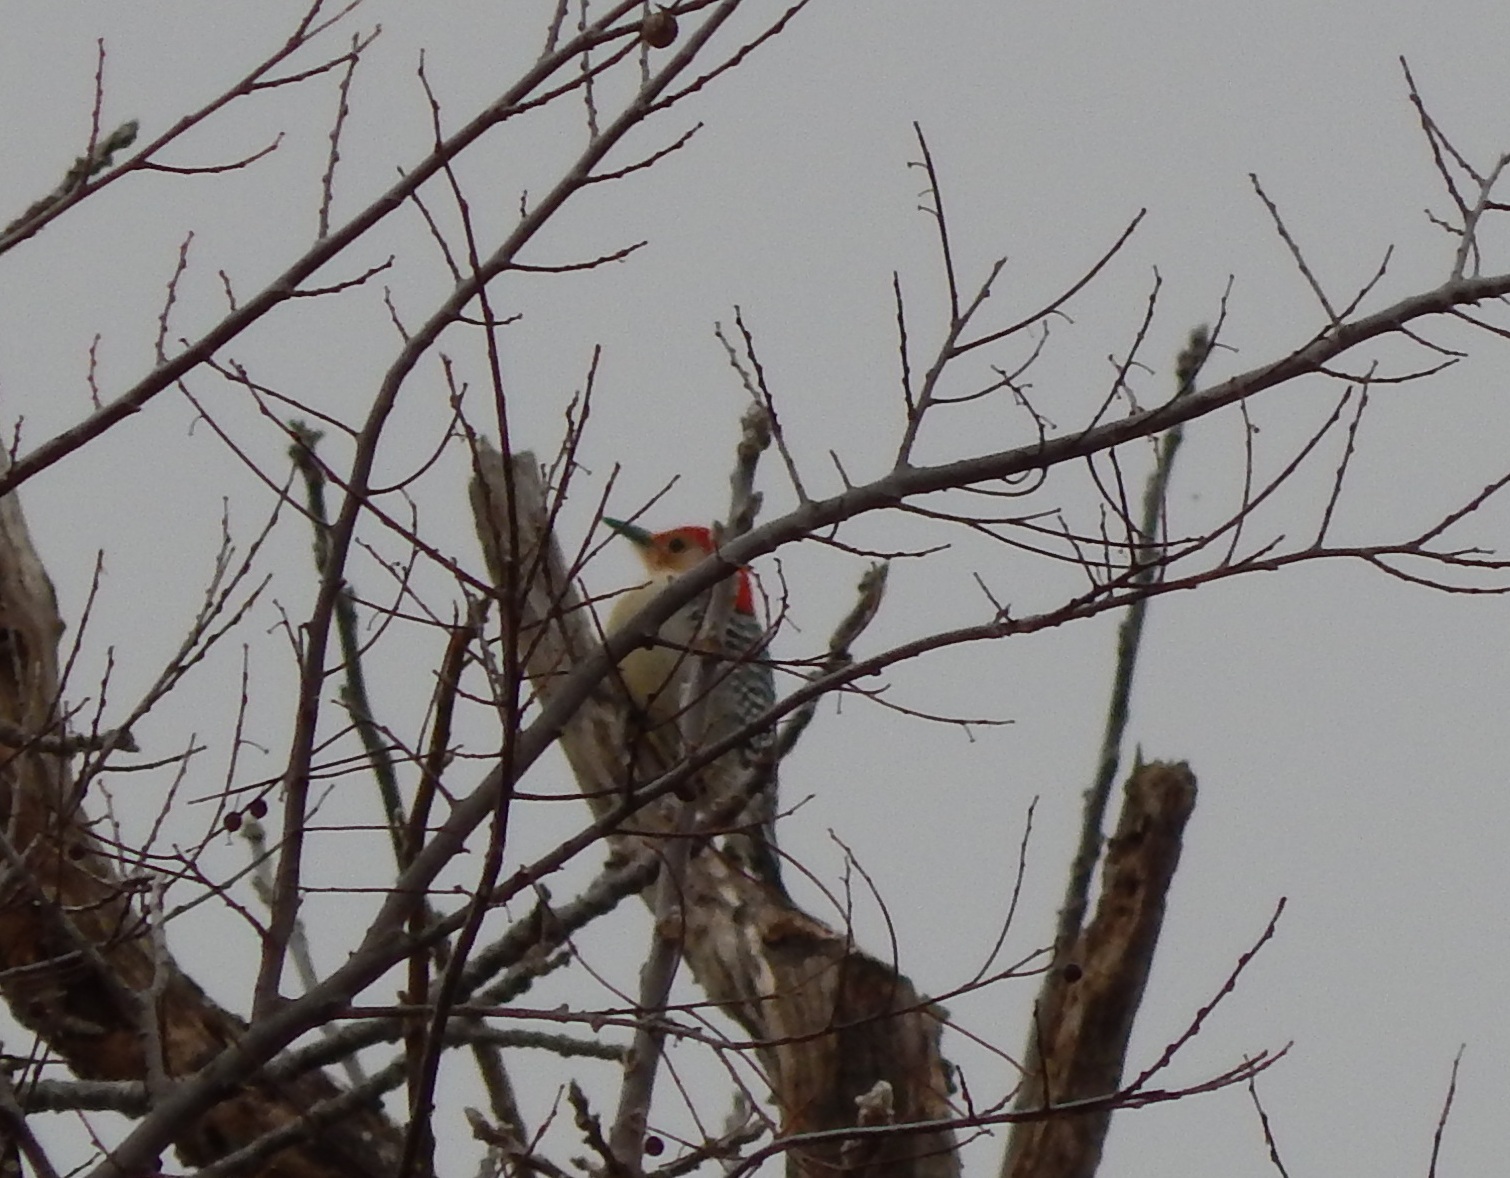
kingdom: Animalia
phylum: Chordata
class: Aves
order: Piciformes
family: Picidae
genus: Melanerpes
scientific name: Melanerpes carolinus
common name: Red-bellied woodpecker
